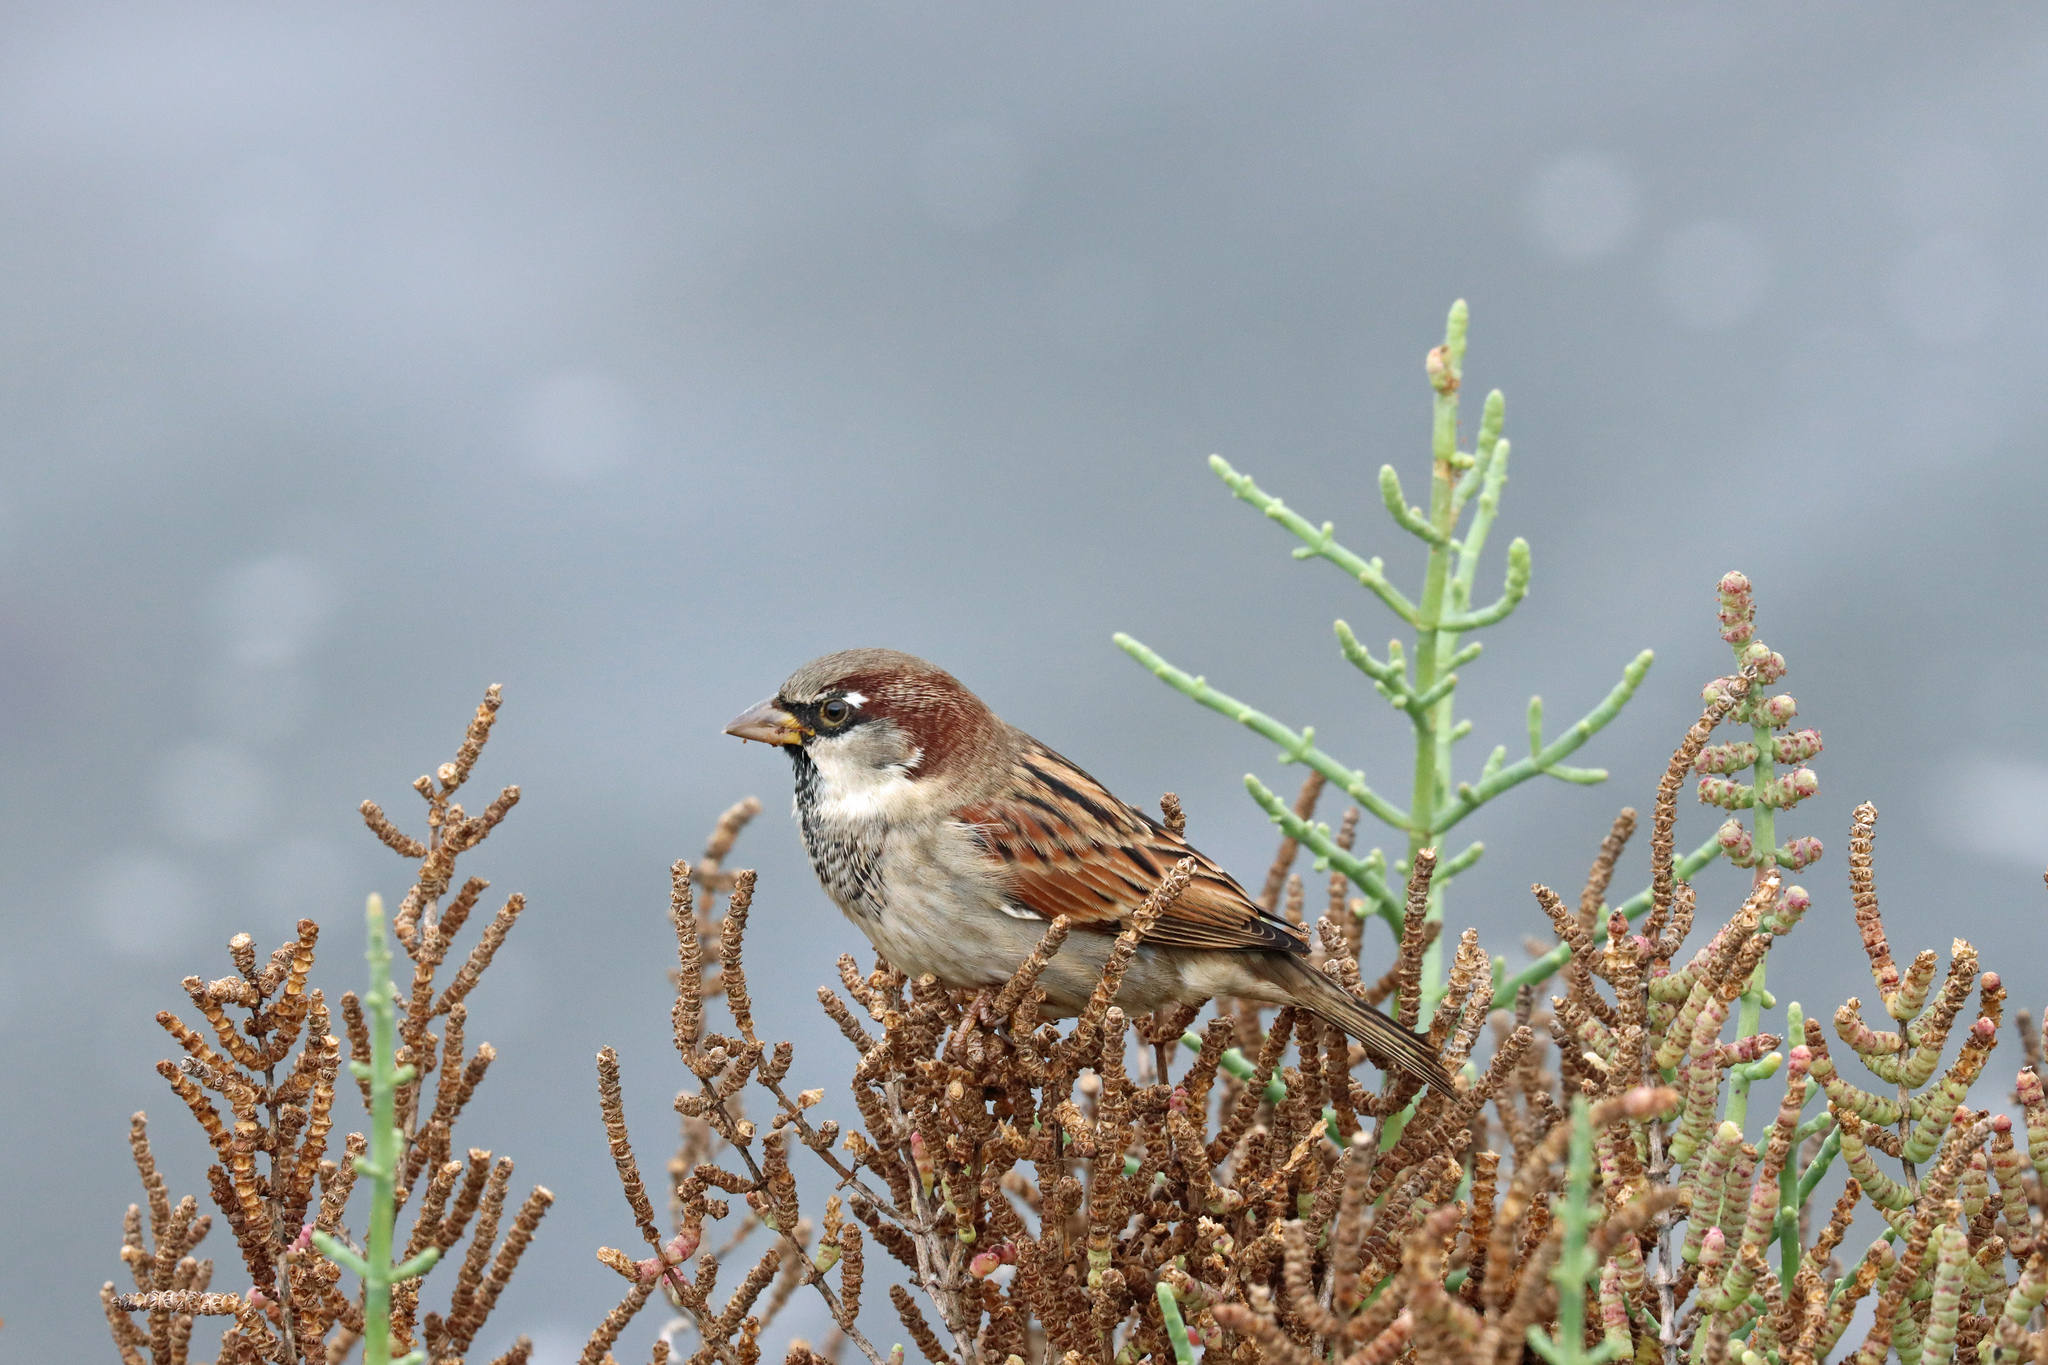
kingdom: Animalia
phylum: Chordata
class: Aves
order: Passeriformes
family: Passeridae
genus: Passer
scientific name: Passer domesticus
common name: House sparrow
